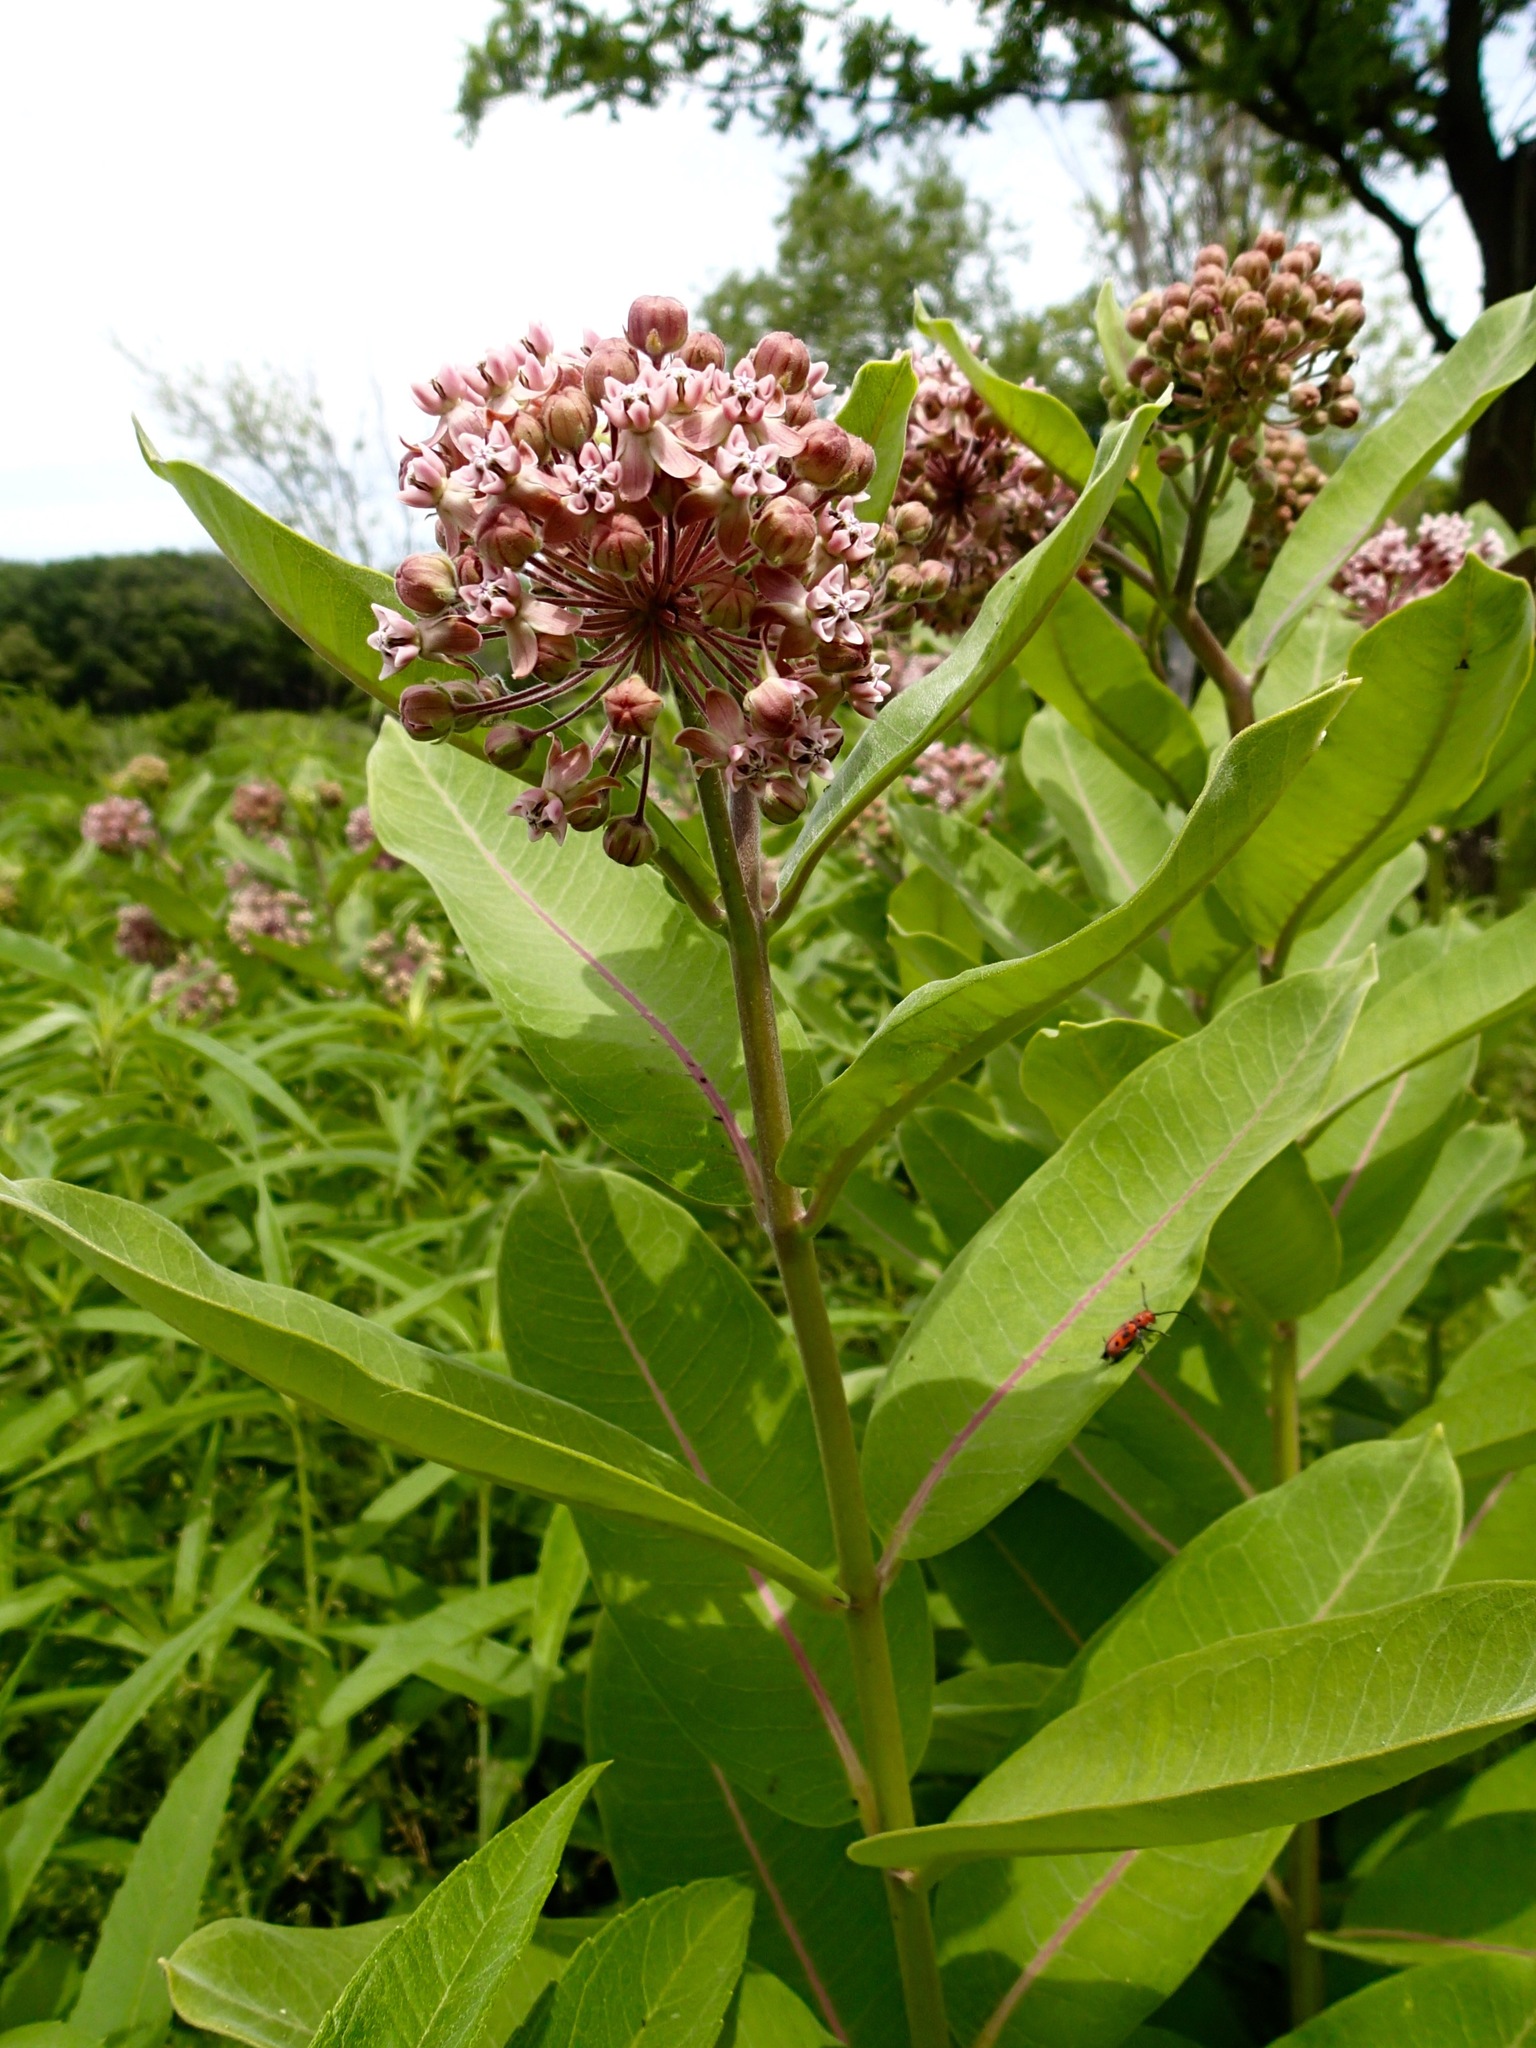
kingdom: Plantae
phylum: Tracheophyta
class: Magnoliopsida
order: Gentianales
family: Apocynaceae
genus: Asclepias
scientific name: Asclepias syriaca
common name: Common milkweed
